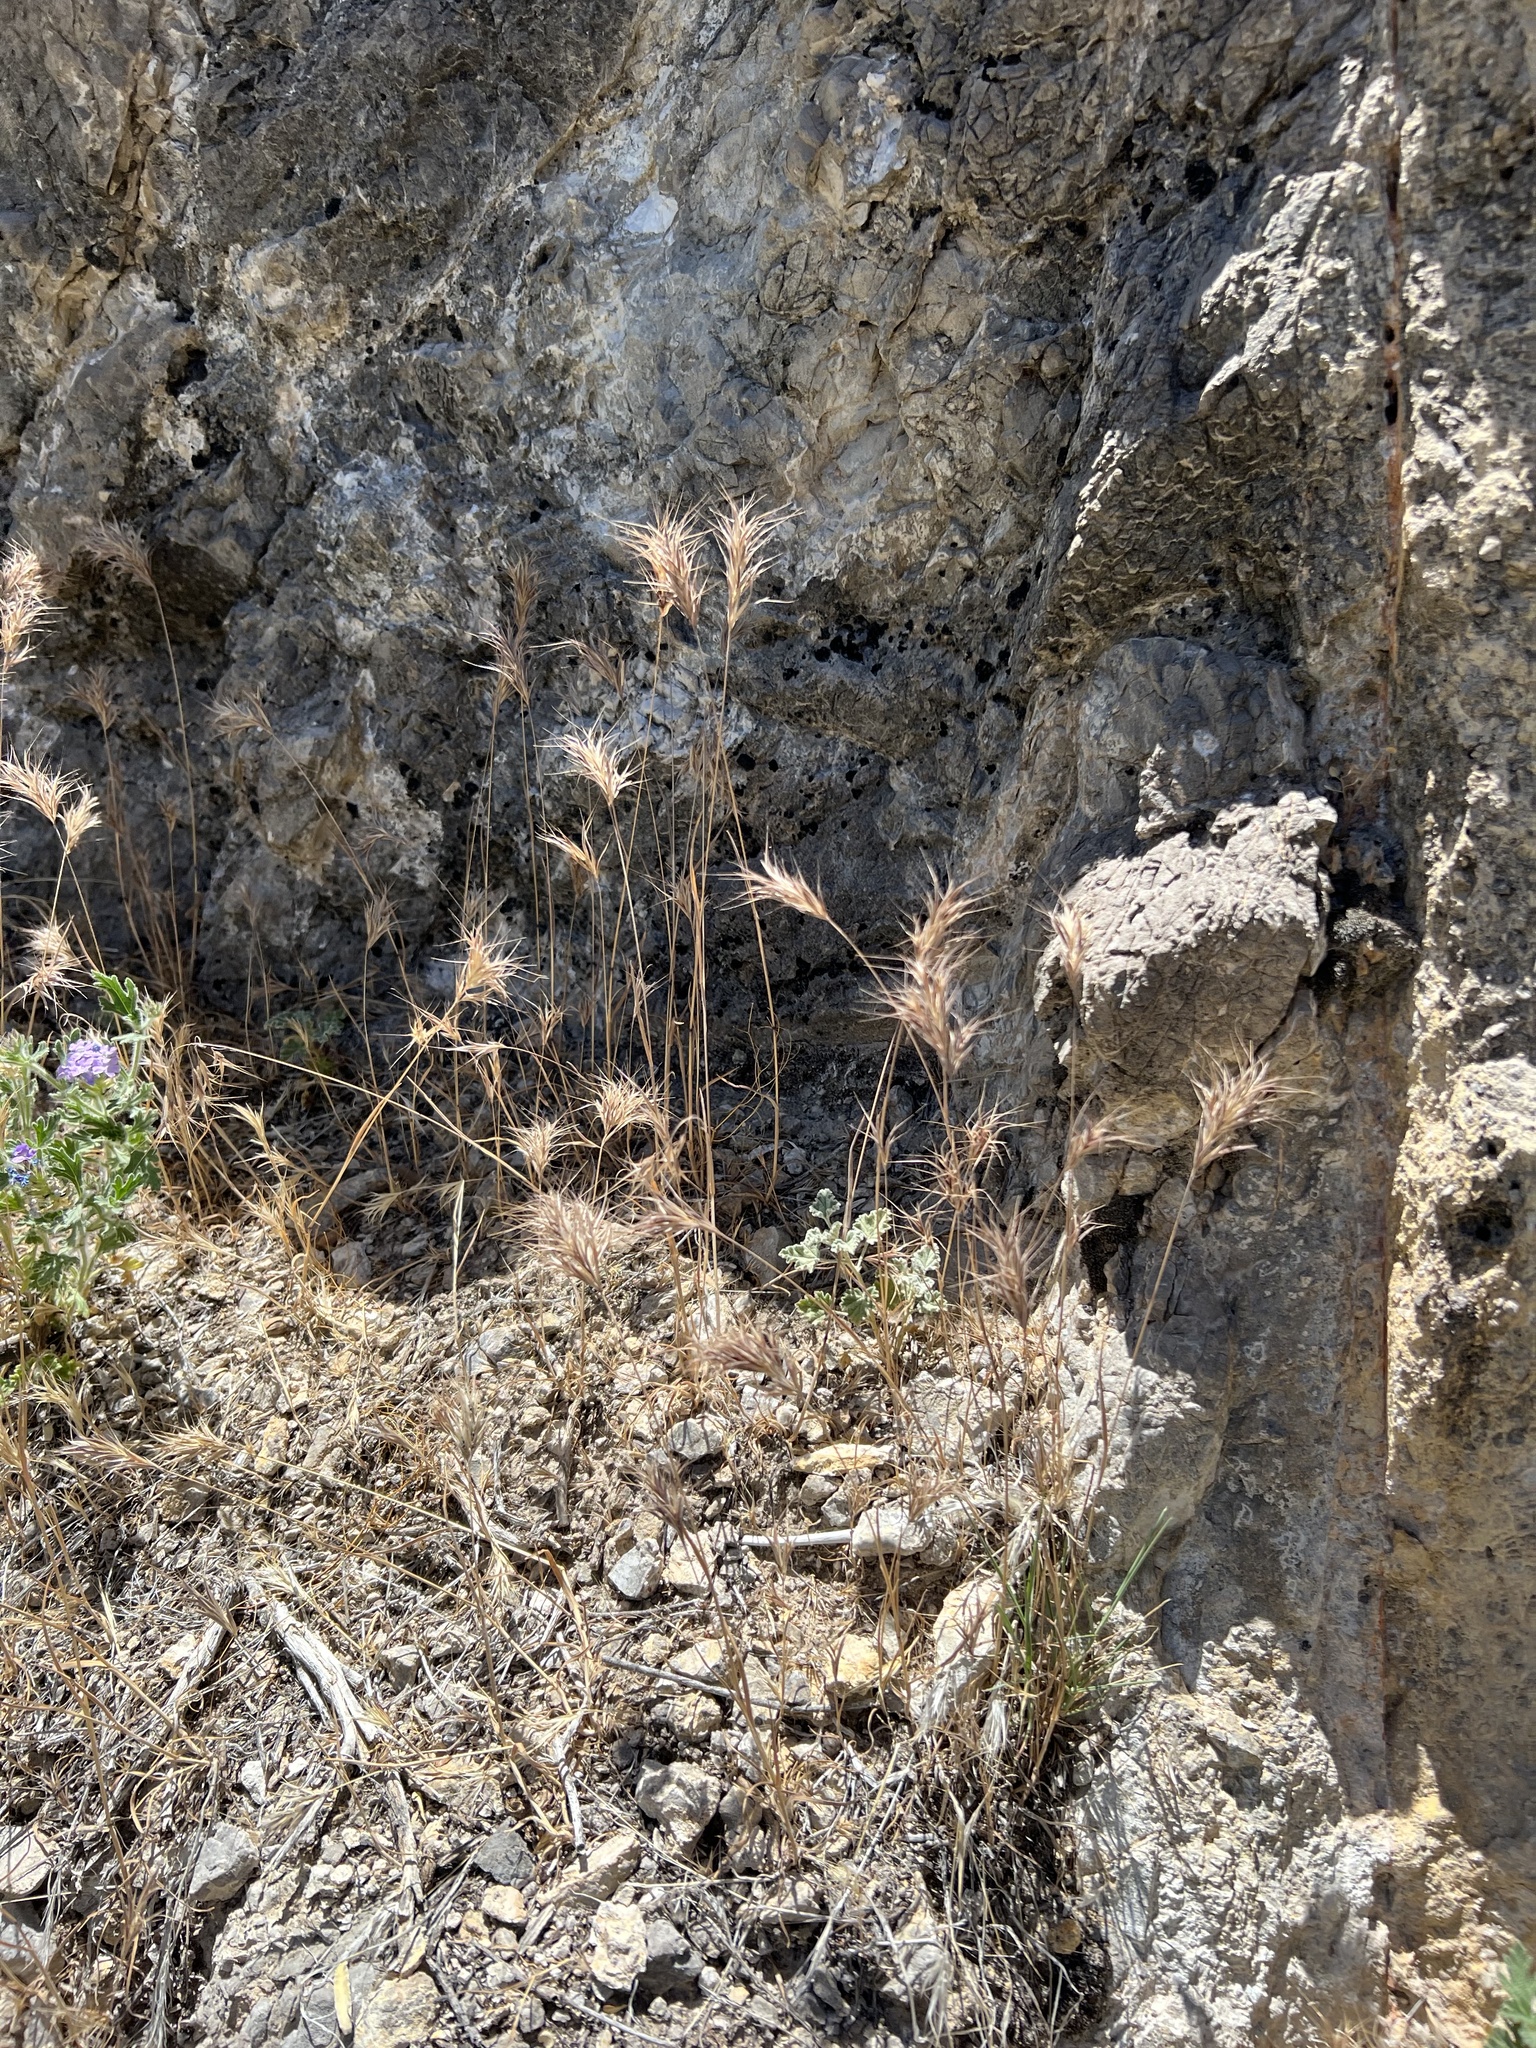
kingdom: Plantae
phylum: Tracheophyta
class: Liliopsida
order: Poales
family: Poaceae
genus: Bromus
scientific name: Bromus rubens
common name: Red brome
